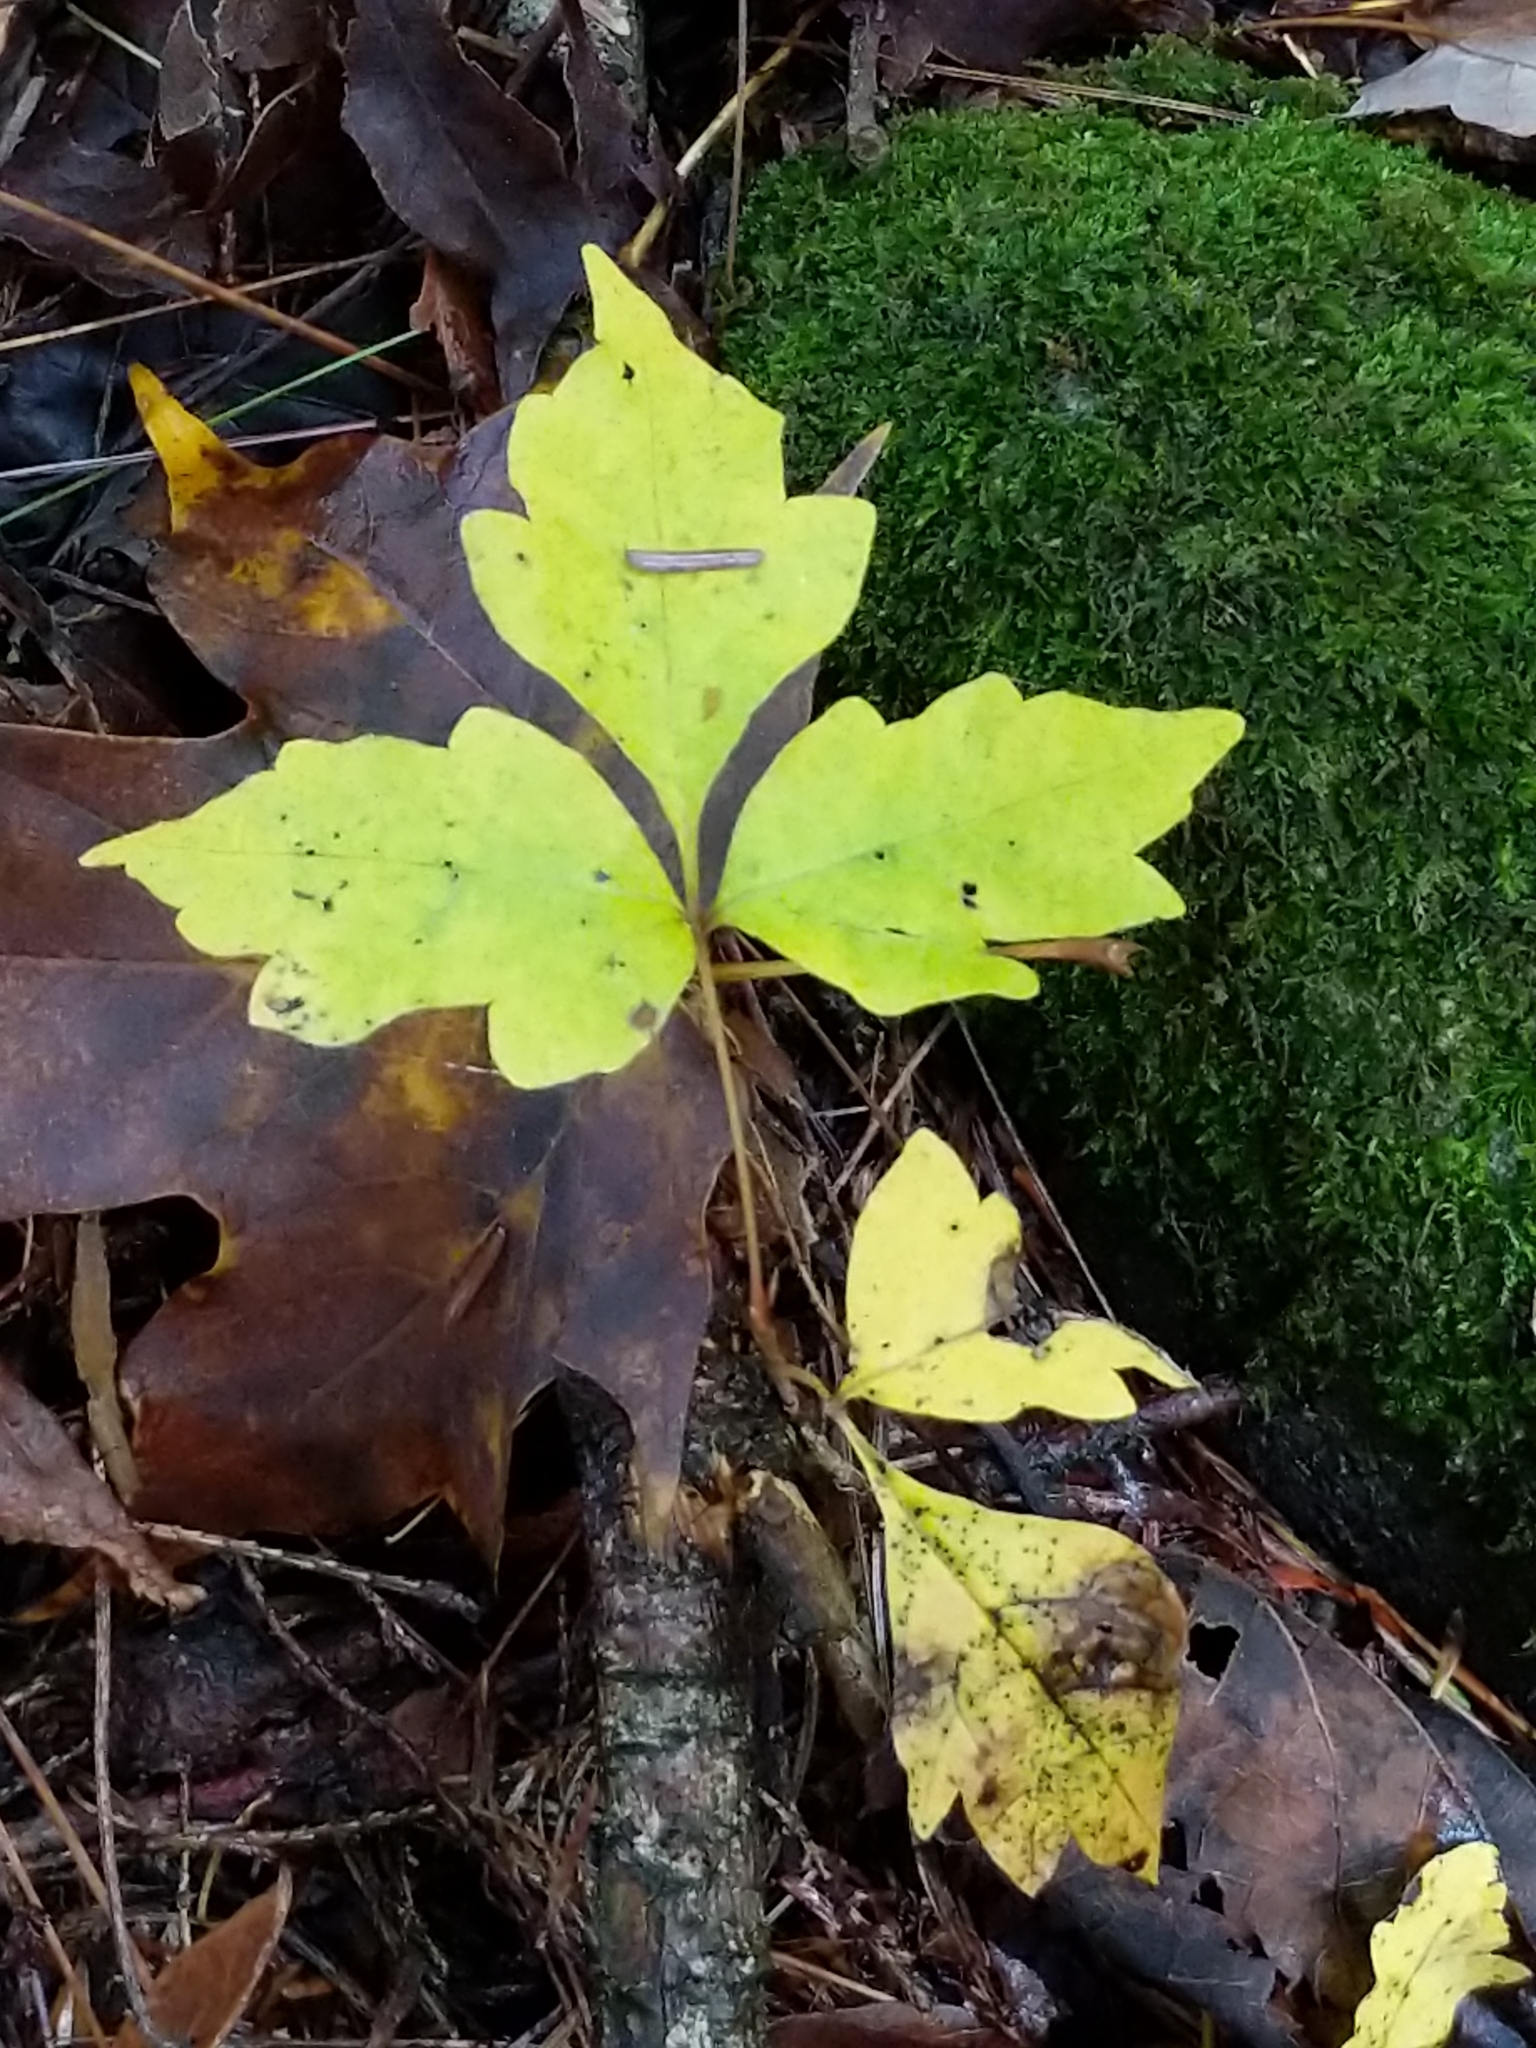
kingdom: Plantae
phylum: Tracheophyta
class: Magnoliopsida
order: Sapindales
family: Anacardiaceae
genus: Toxicodendron
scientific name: Toxicodendron radicans
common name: Poison ivy
